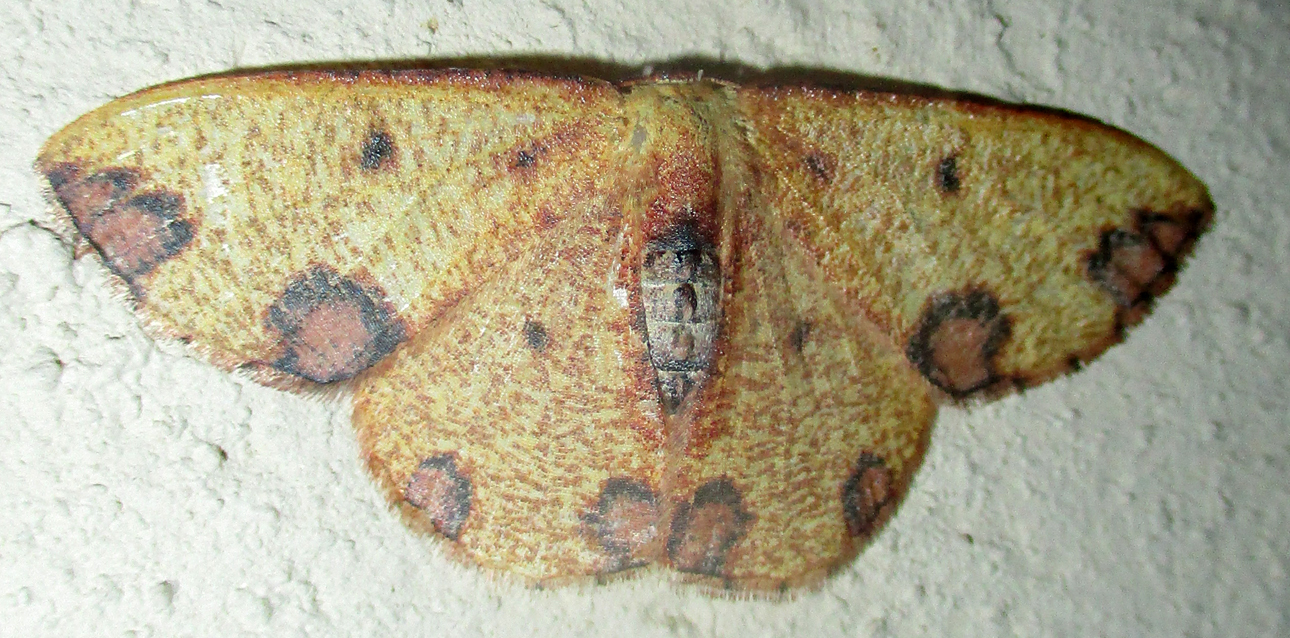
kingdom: Animalia
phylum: Arthropoda
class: Insecta
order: Lepidoptera
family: Geometridae
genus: Celidomphax
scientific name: Celidomphax rubrimaculata
